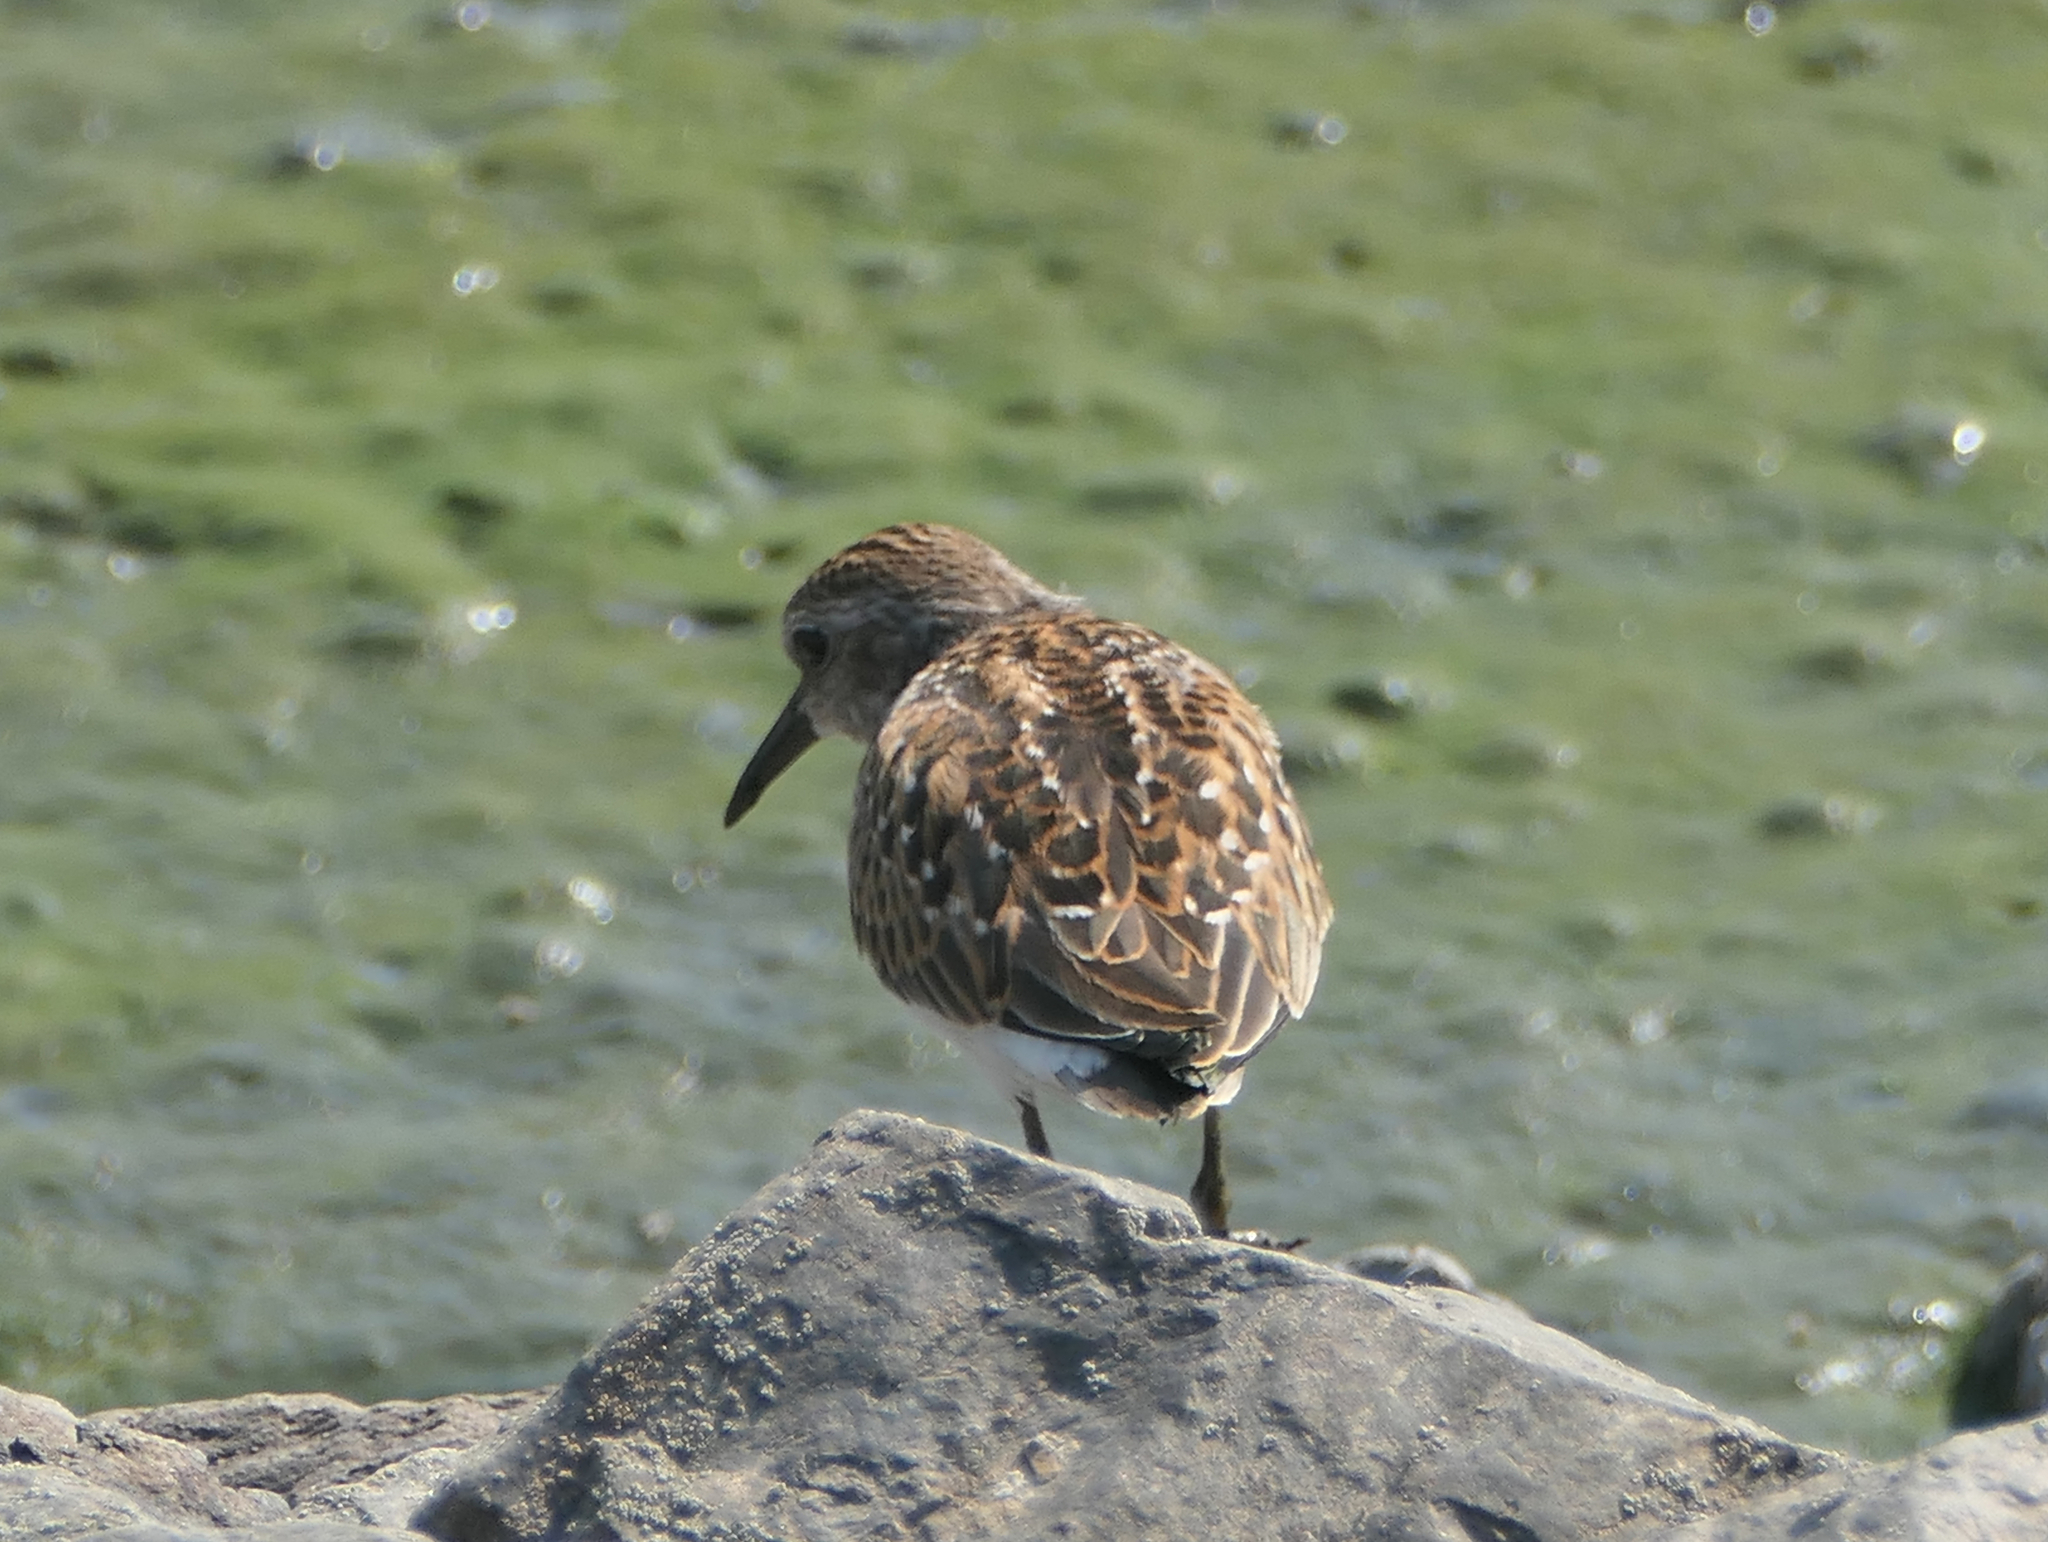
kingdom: Animalia
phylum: Chordata
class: Aves
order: Charadriiformes
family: Scolopacidae
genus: Calidris
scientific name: Calidris minutilla
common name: Least sandpiper
